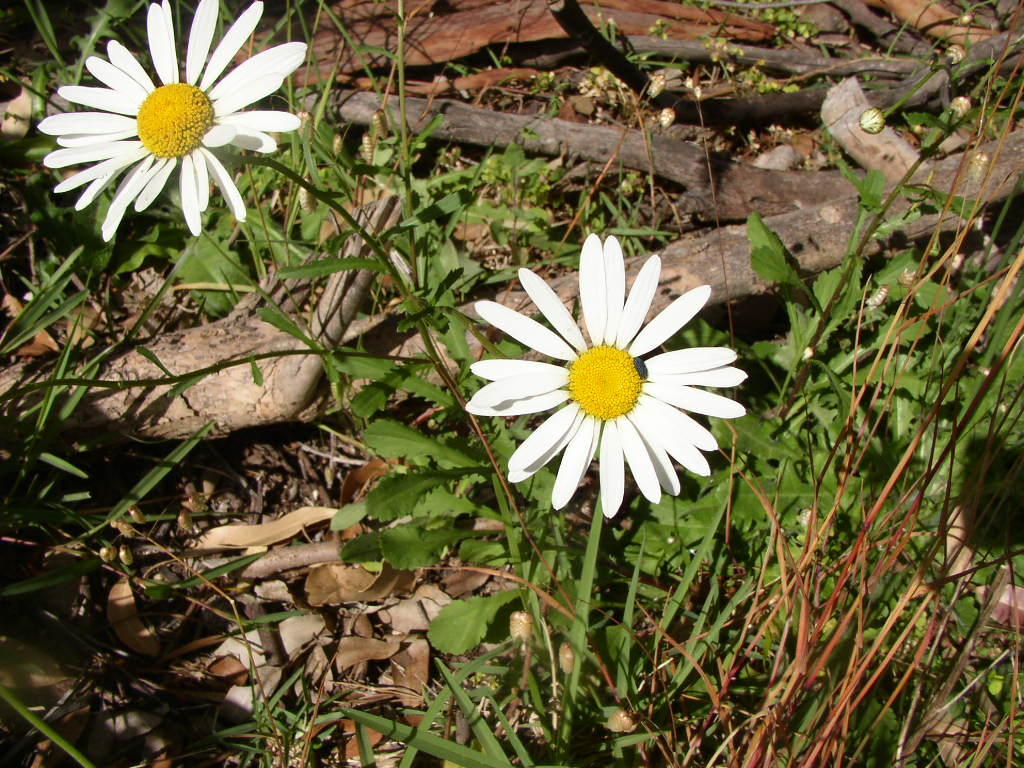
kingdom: Plantae
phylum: Tracheophyta
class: Magnoliopsida
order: Asterales
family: Asteraceae
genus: Leucanthemum
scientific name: Leucanthemum vulgare
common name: Oxeye daisy
